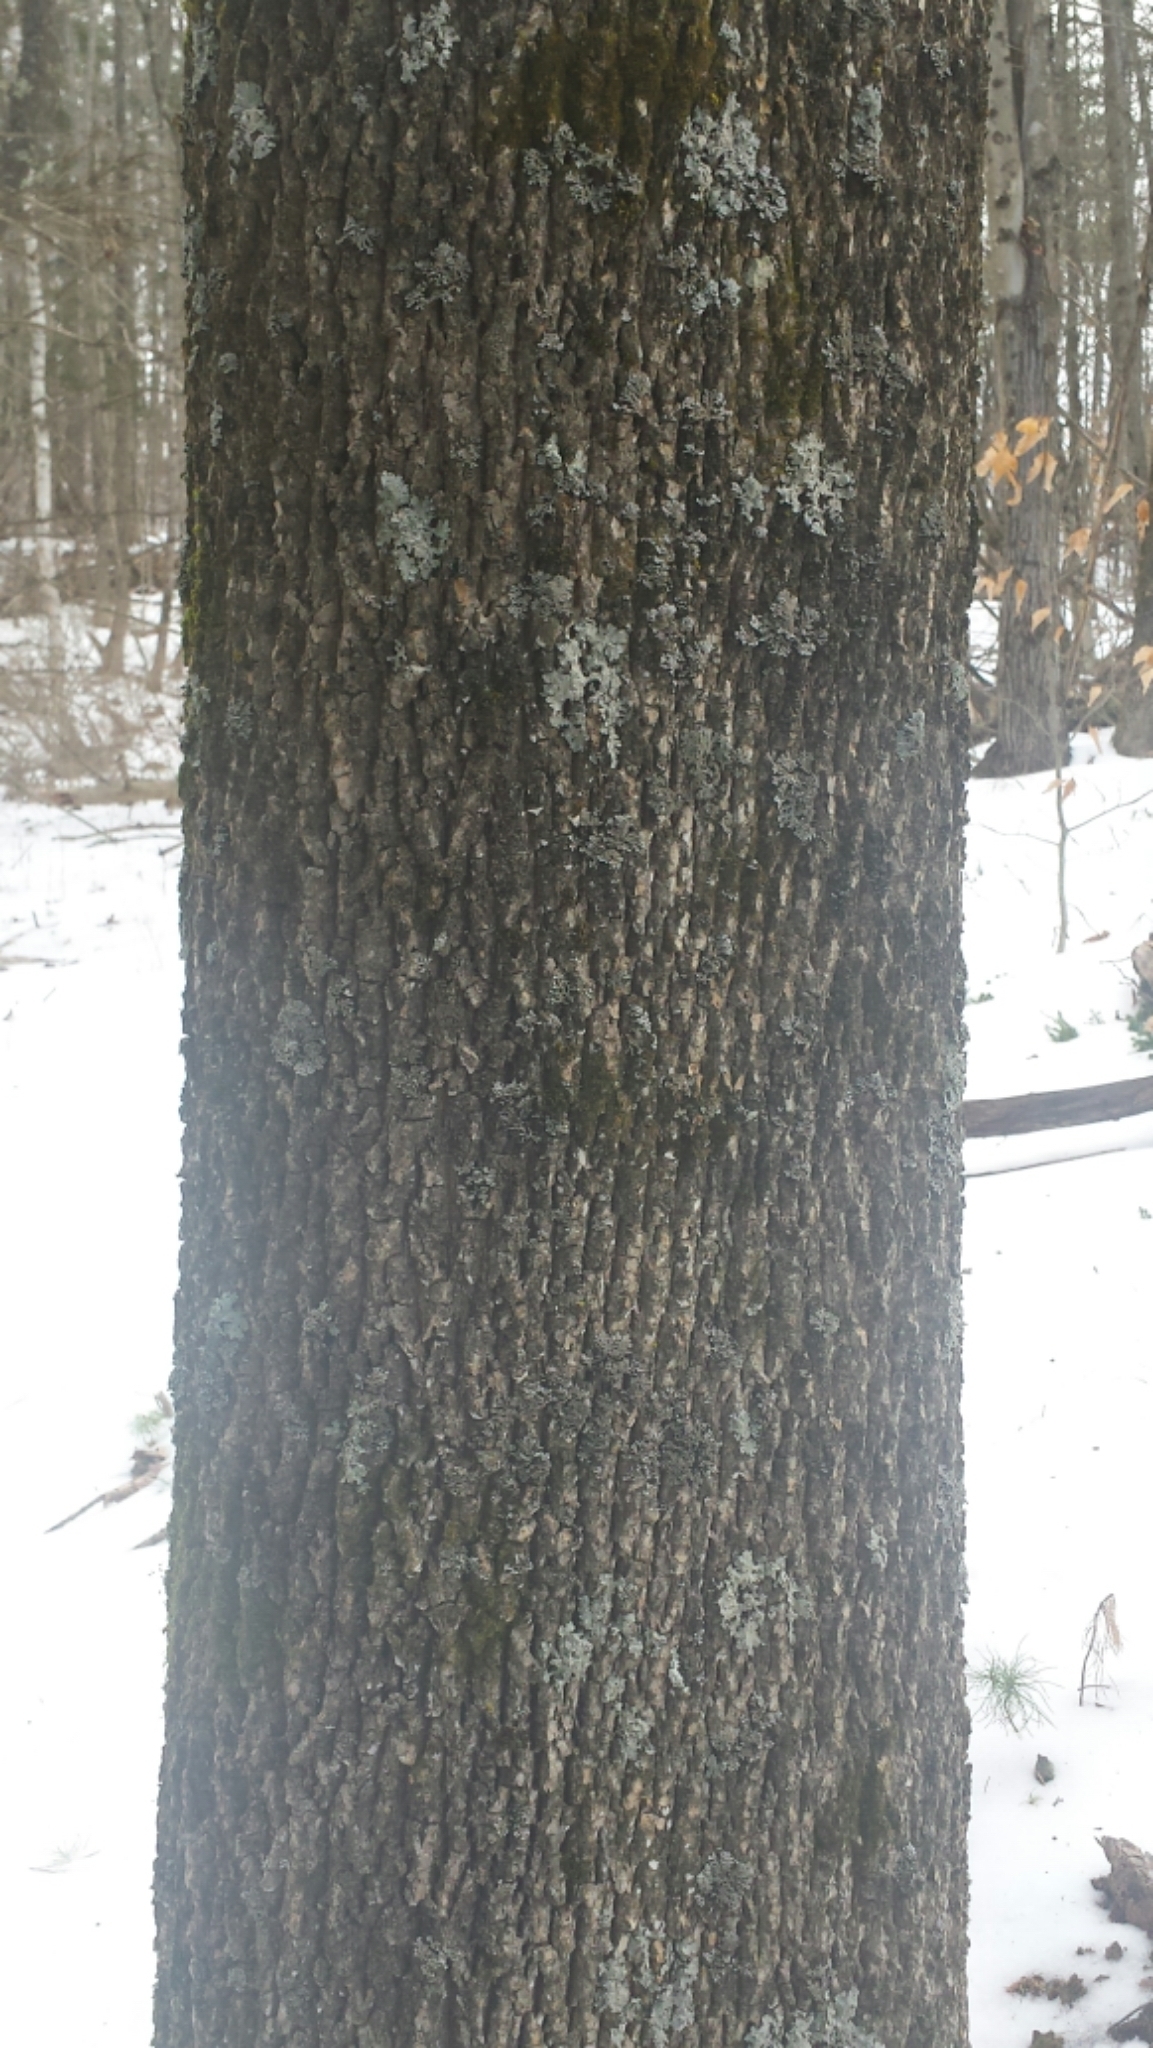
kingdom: Plantae
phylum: Tracheophyta
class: Magnoliopsida
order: Lamiales
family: Oleaceae
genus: Fraxinus
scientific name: Fraxinus americana
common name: White ash
